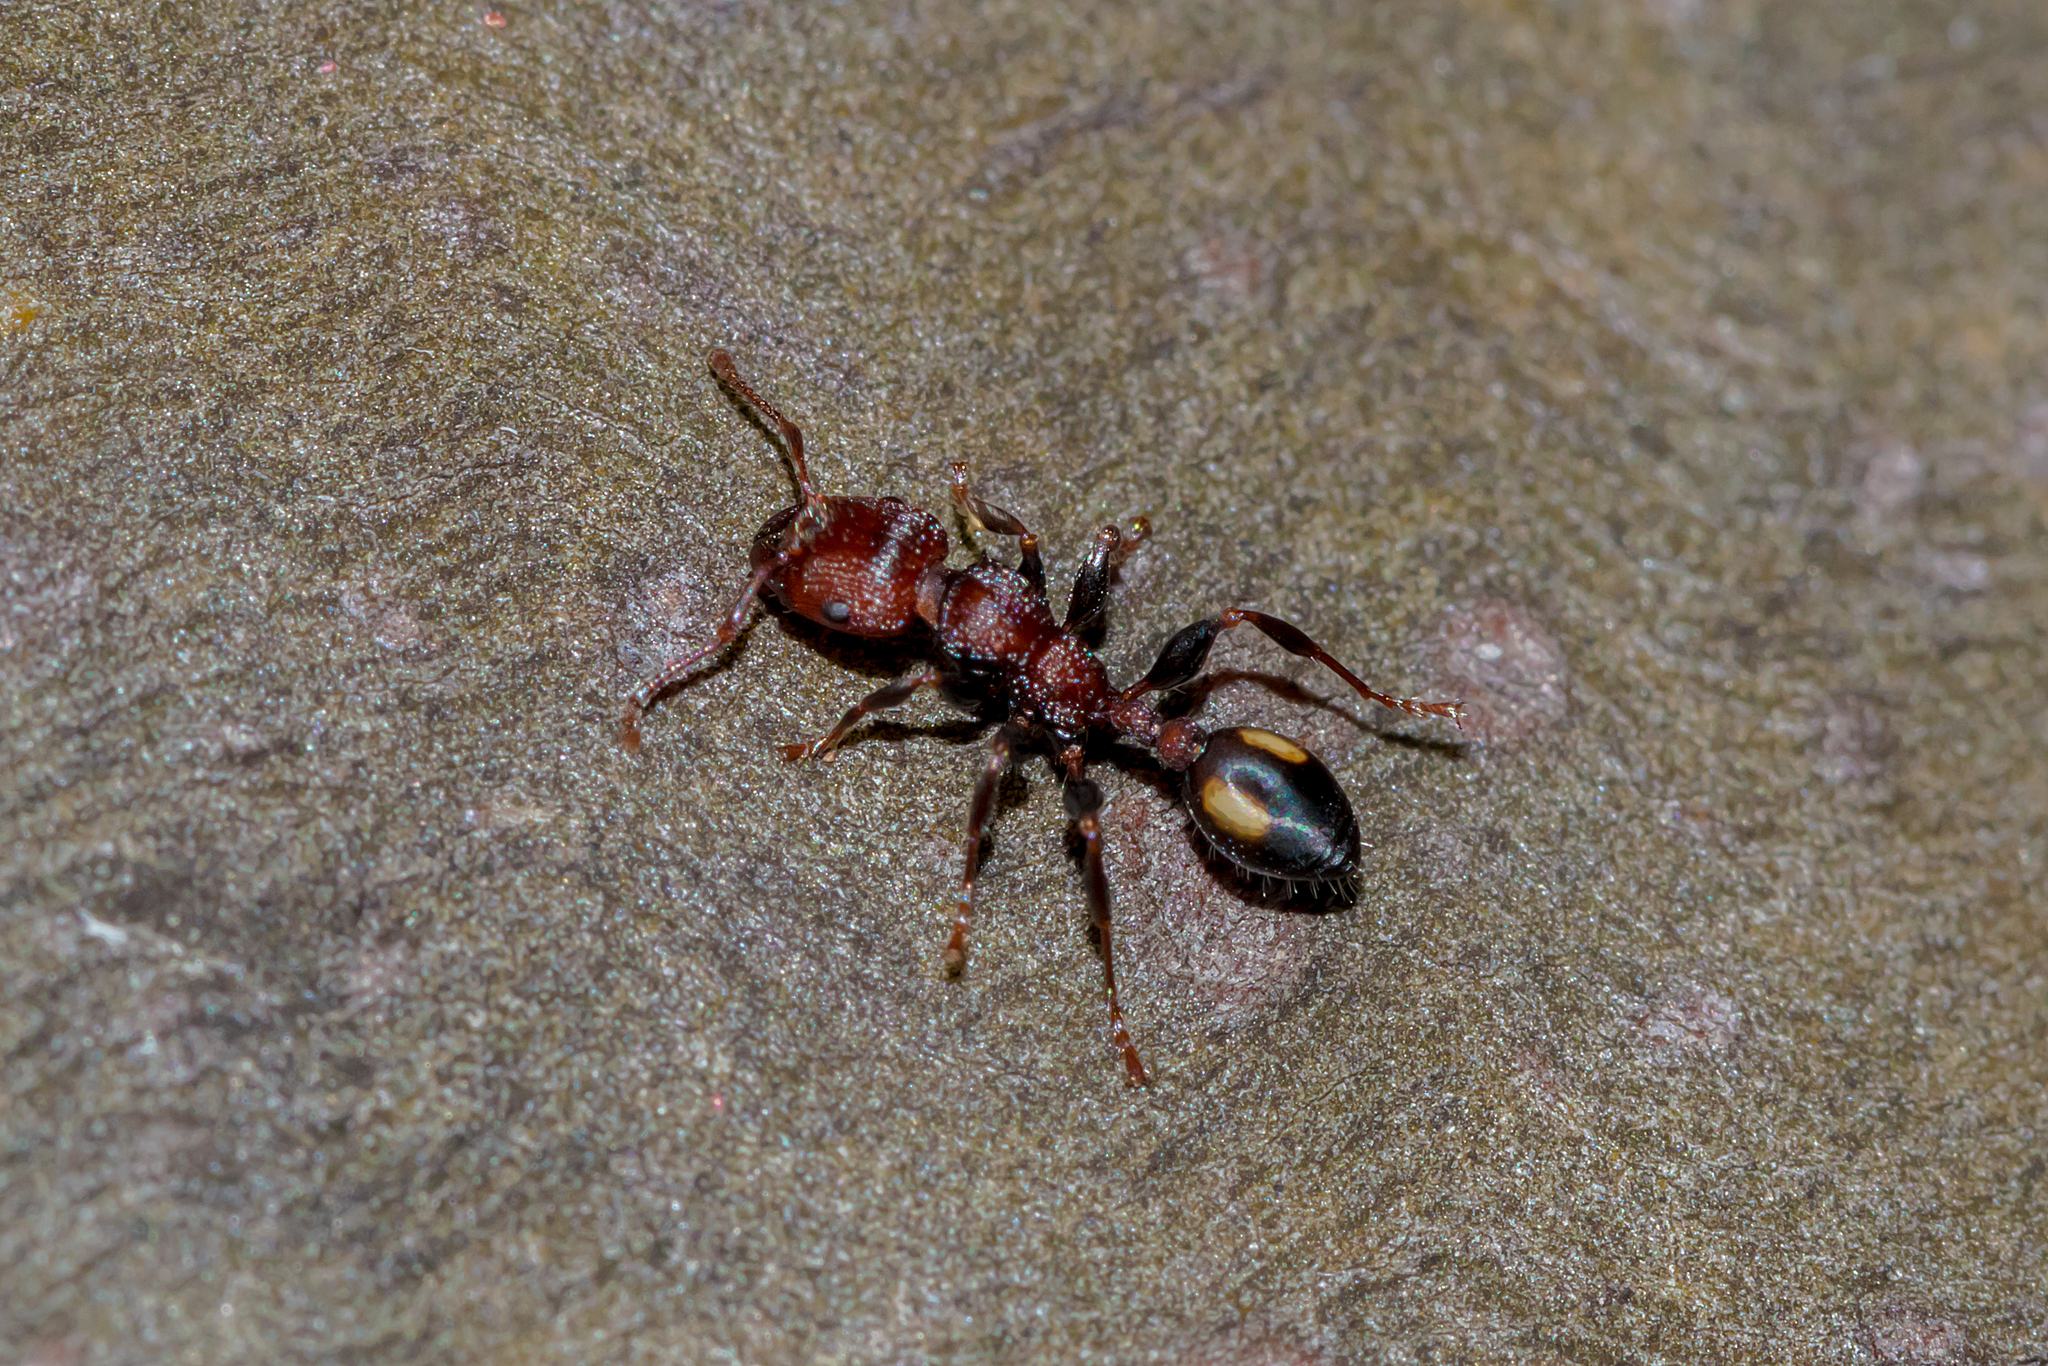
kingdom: Animalia
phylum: Arthropoda
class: Insecta
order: Hymenoptera
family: Formicidae
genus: Podomyrma
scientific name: Podomyrma adelaidae
